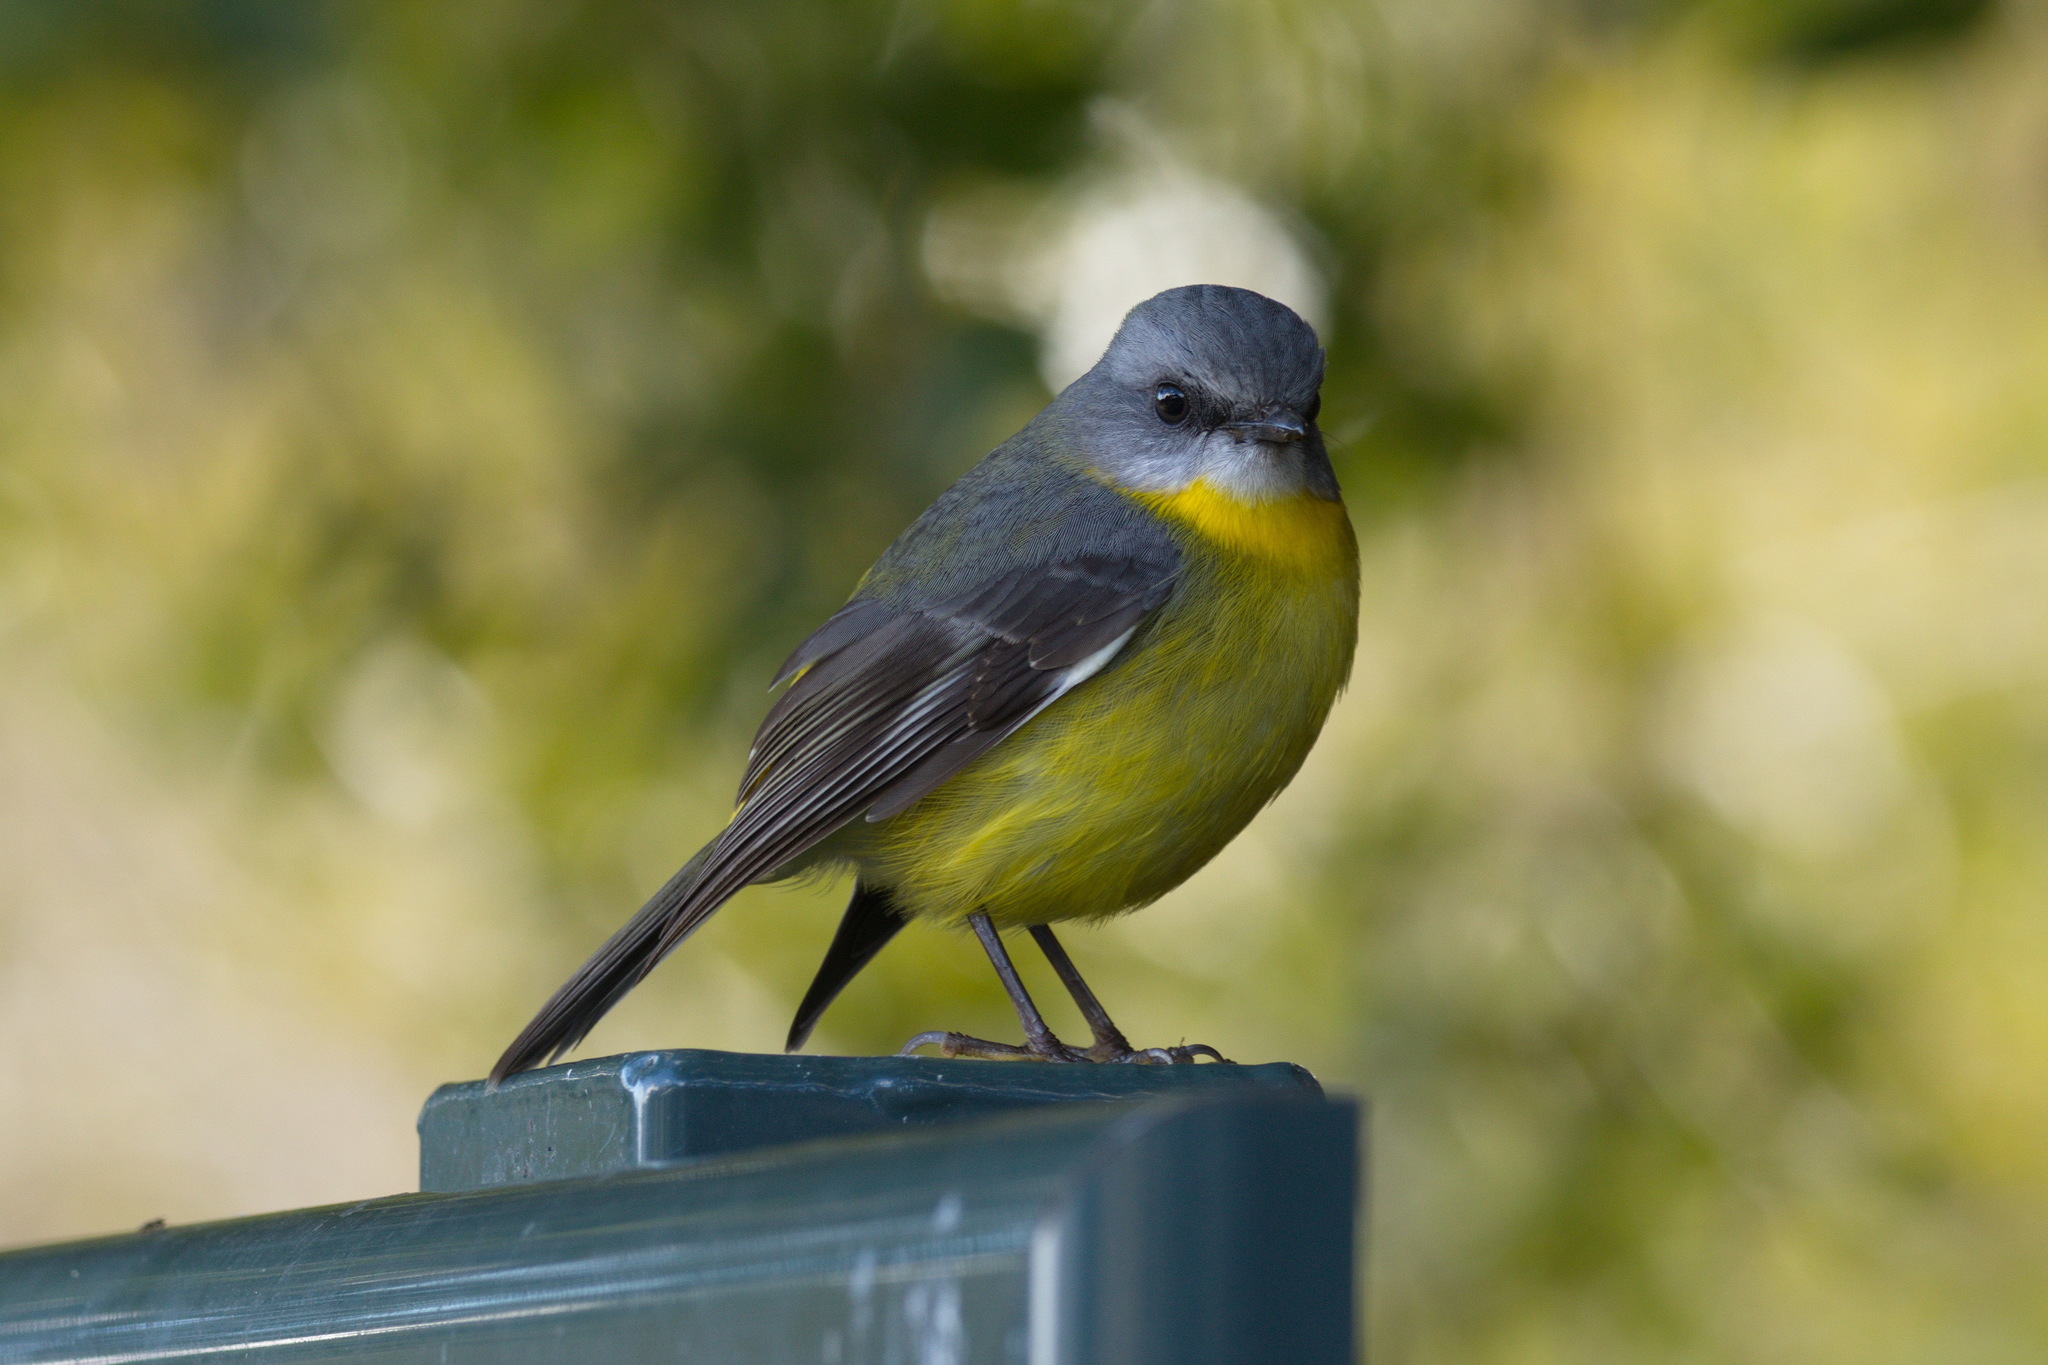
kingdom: Animalia
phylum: Chordata
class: Aves
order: Passeriformes
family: Petroicidae
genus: Eopsaltria
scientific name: Eopsaltria australis
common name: Eastern yellow robin
